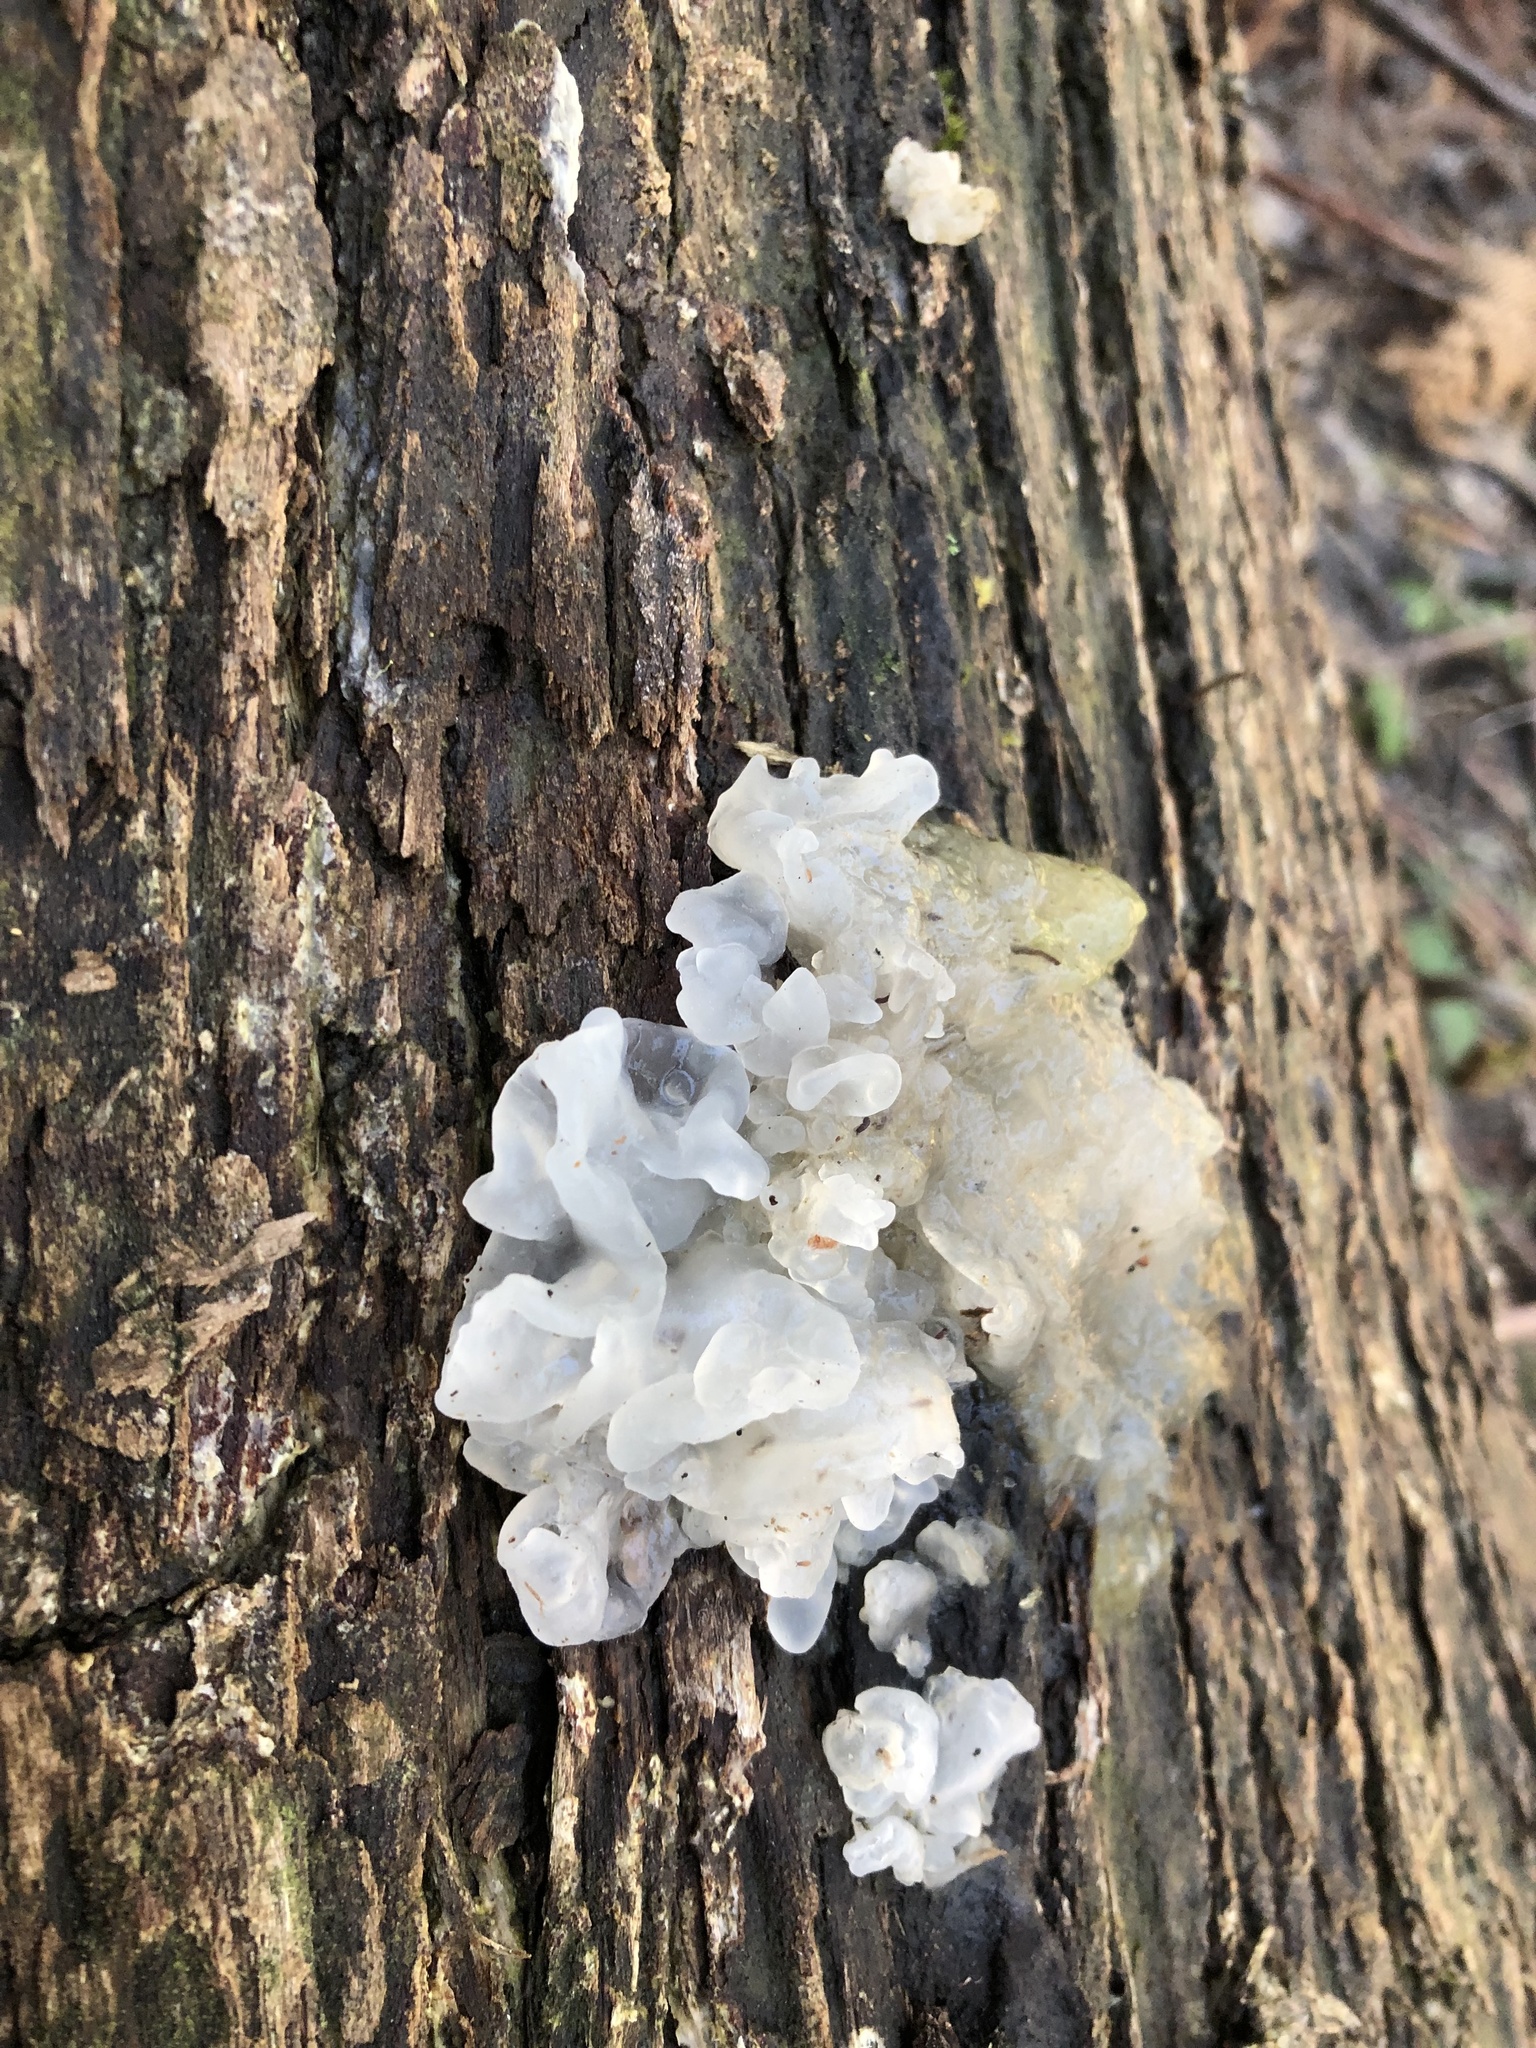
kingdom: Fungi
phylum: Basidiomycota
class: Tremellomycetes
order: Tremellales
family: Tremellaceae
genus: Tremella
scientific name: Tremella fuciformis
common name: Snow fungus
